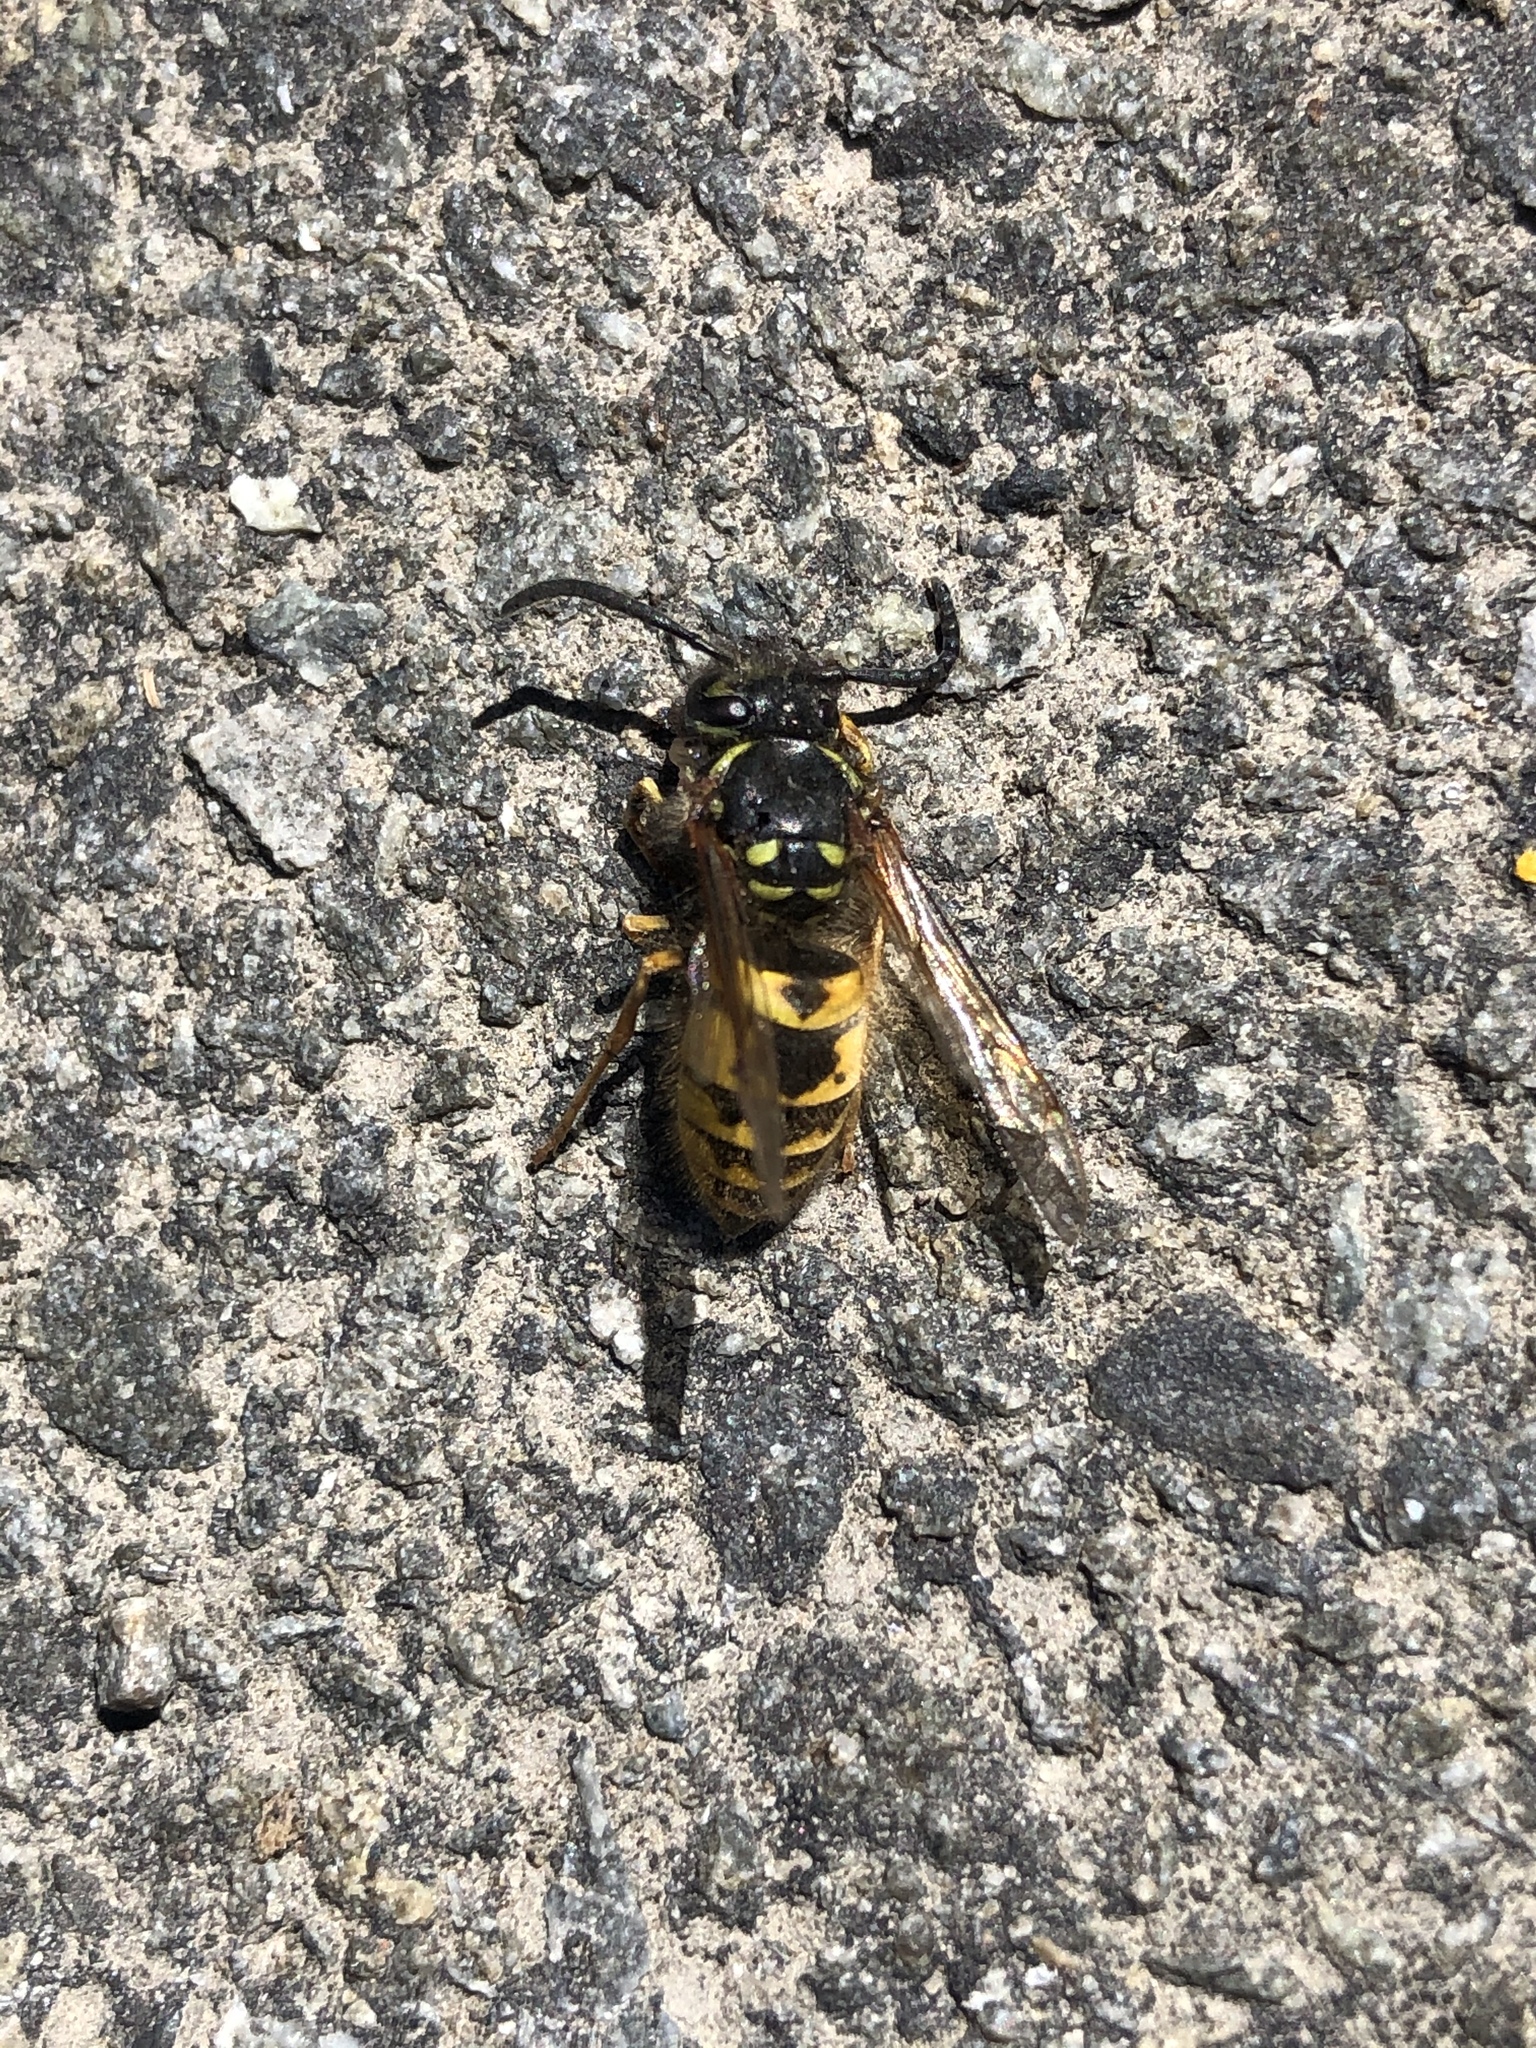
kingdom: Animalia
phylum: Arthropoda
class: Insecta
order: Hymenoptera
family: Vespidae
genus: Vespula
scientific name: Vespula vulgaris
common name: Common wasp
